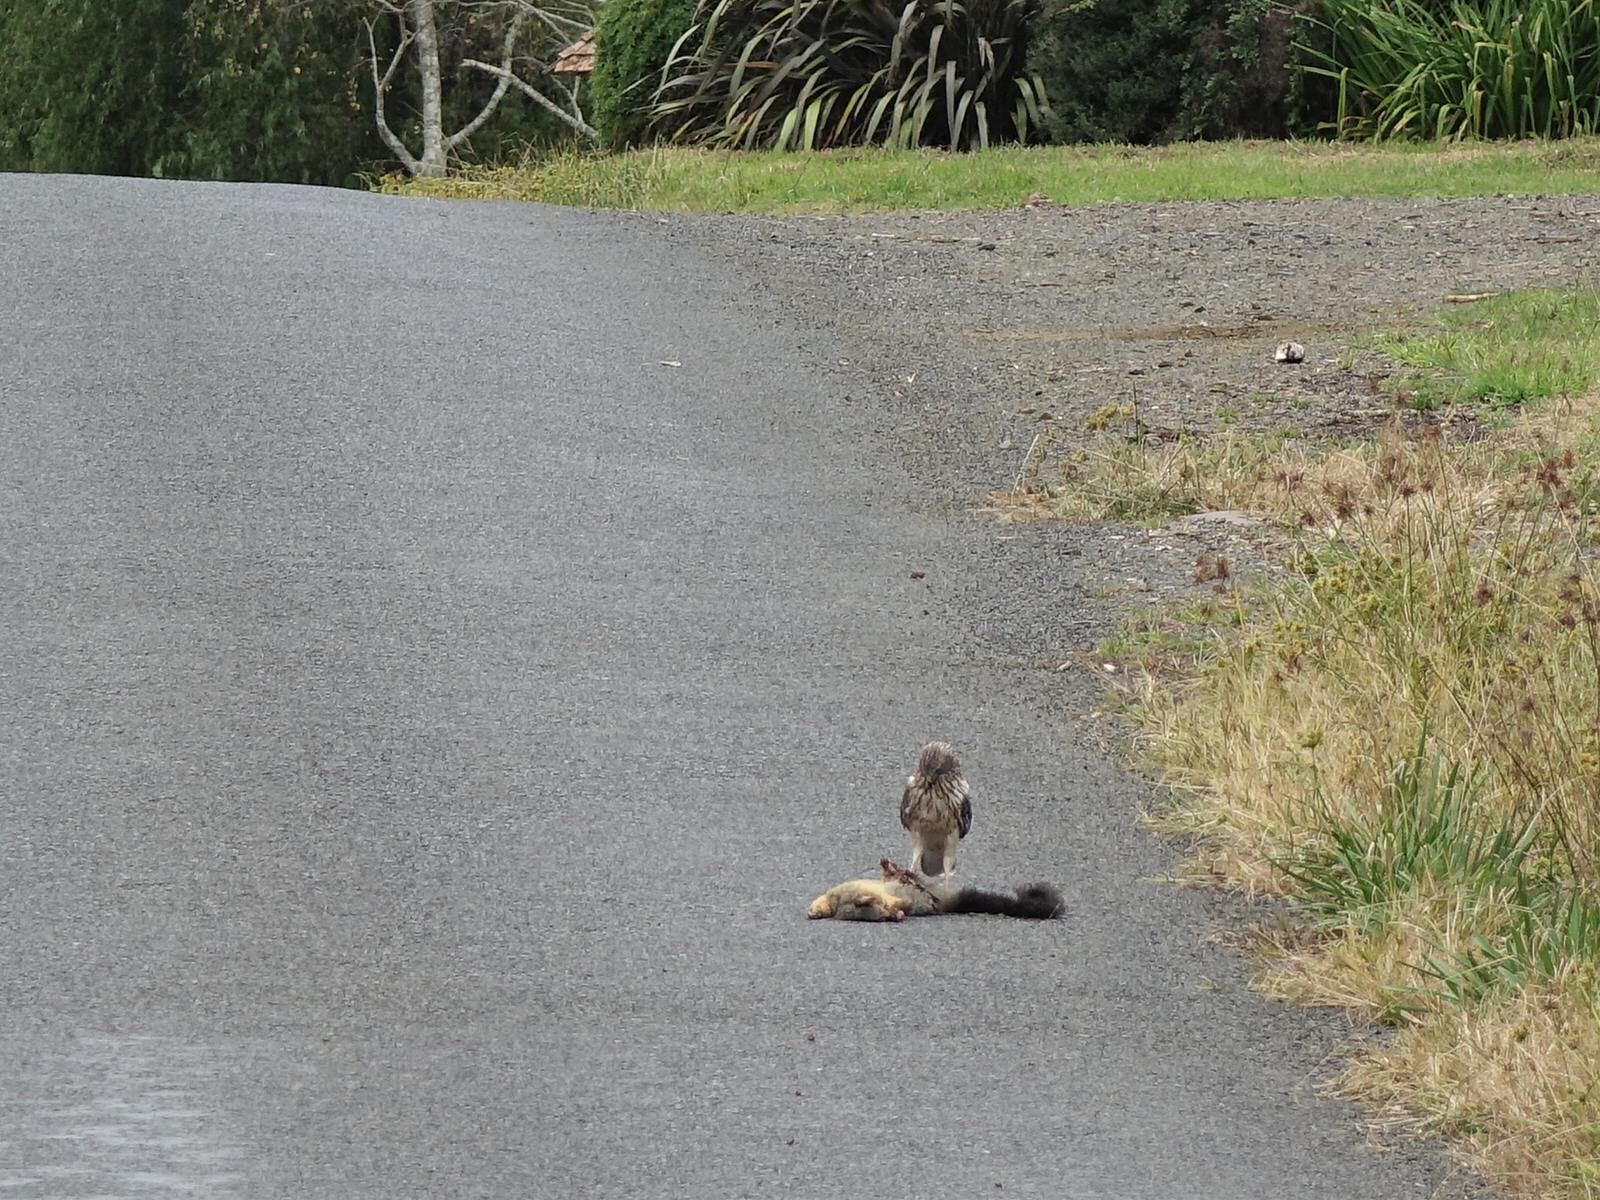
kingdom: Animalia
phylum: Chordata
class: Aves
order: Accipitriformes
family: Accipitridae
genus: Circus
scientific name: Circus approximans
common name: Swamp harrier
